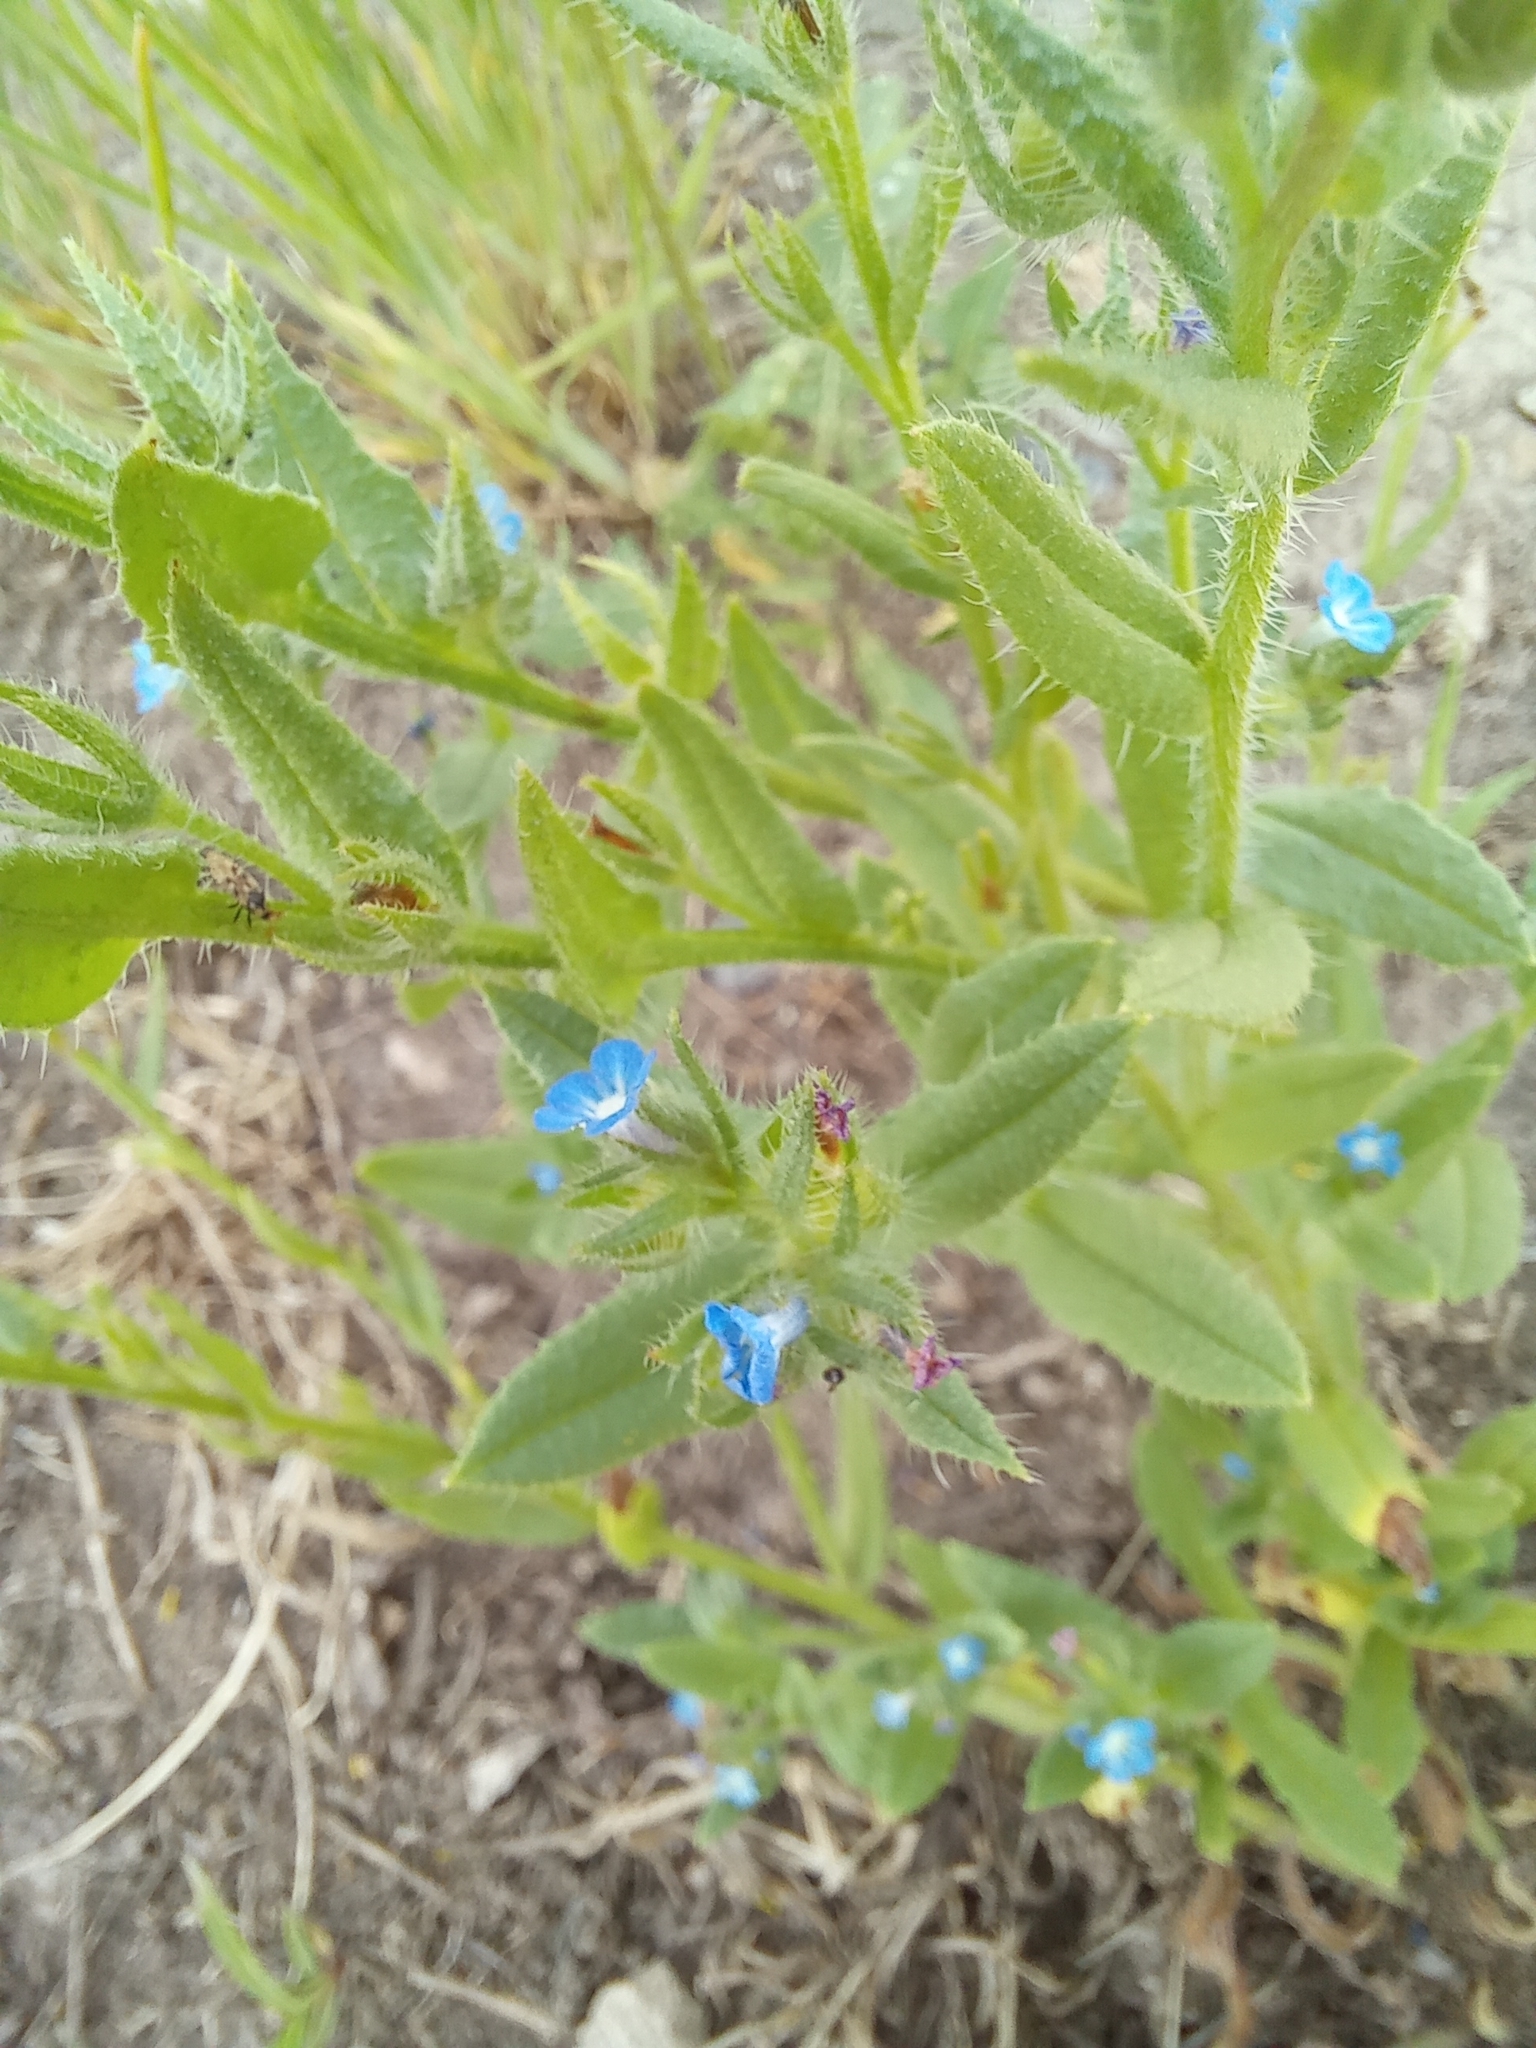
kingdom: Plantae
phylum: Tracheophyta
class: Magnoliopsida
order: Boraginales
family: Boraginaceae
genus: Lycopsis
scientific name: Lycopsis arvensis
